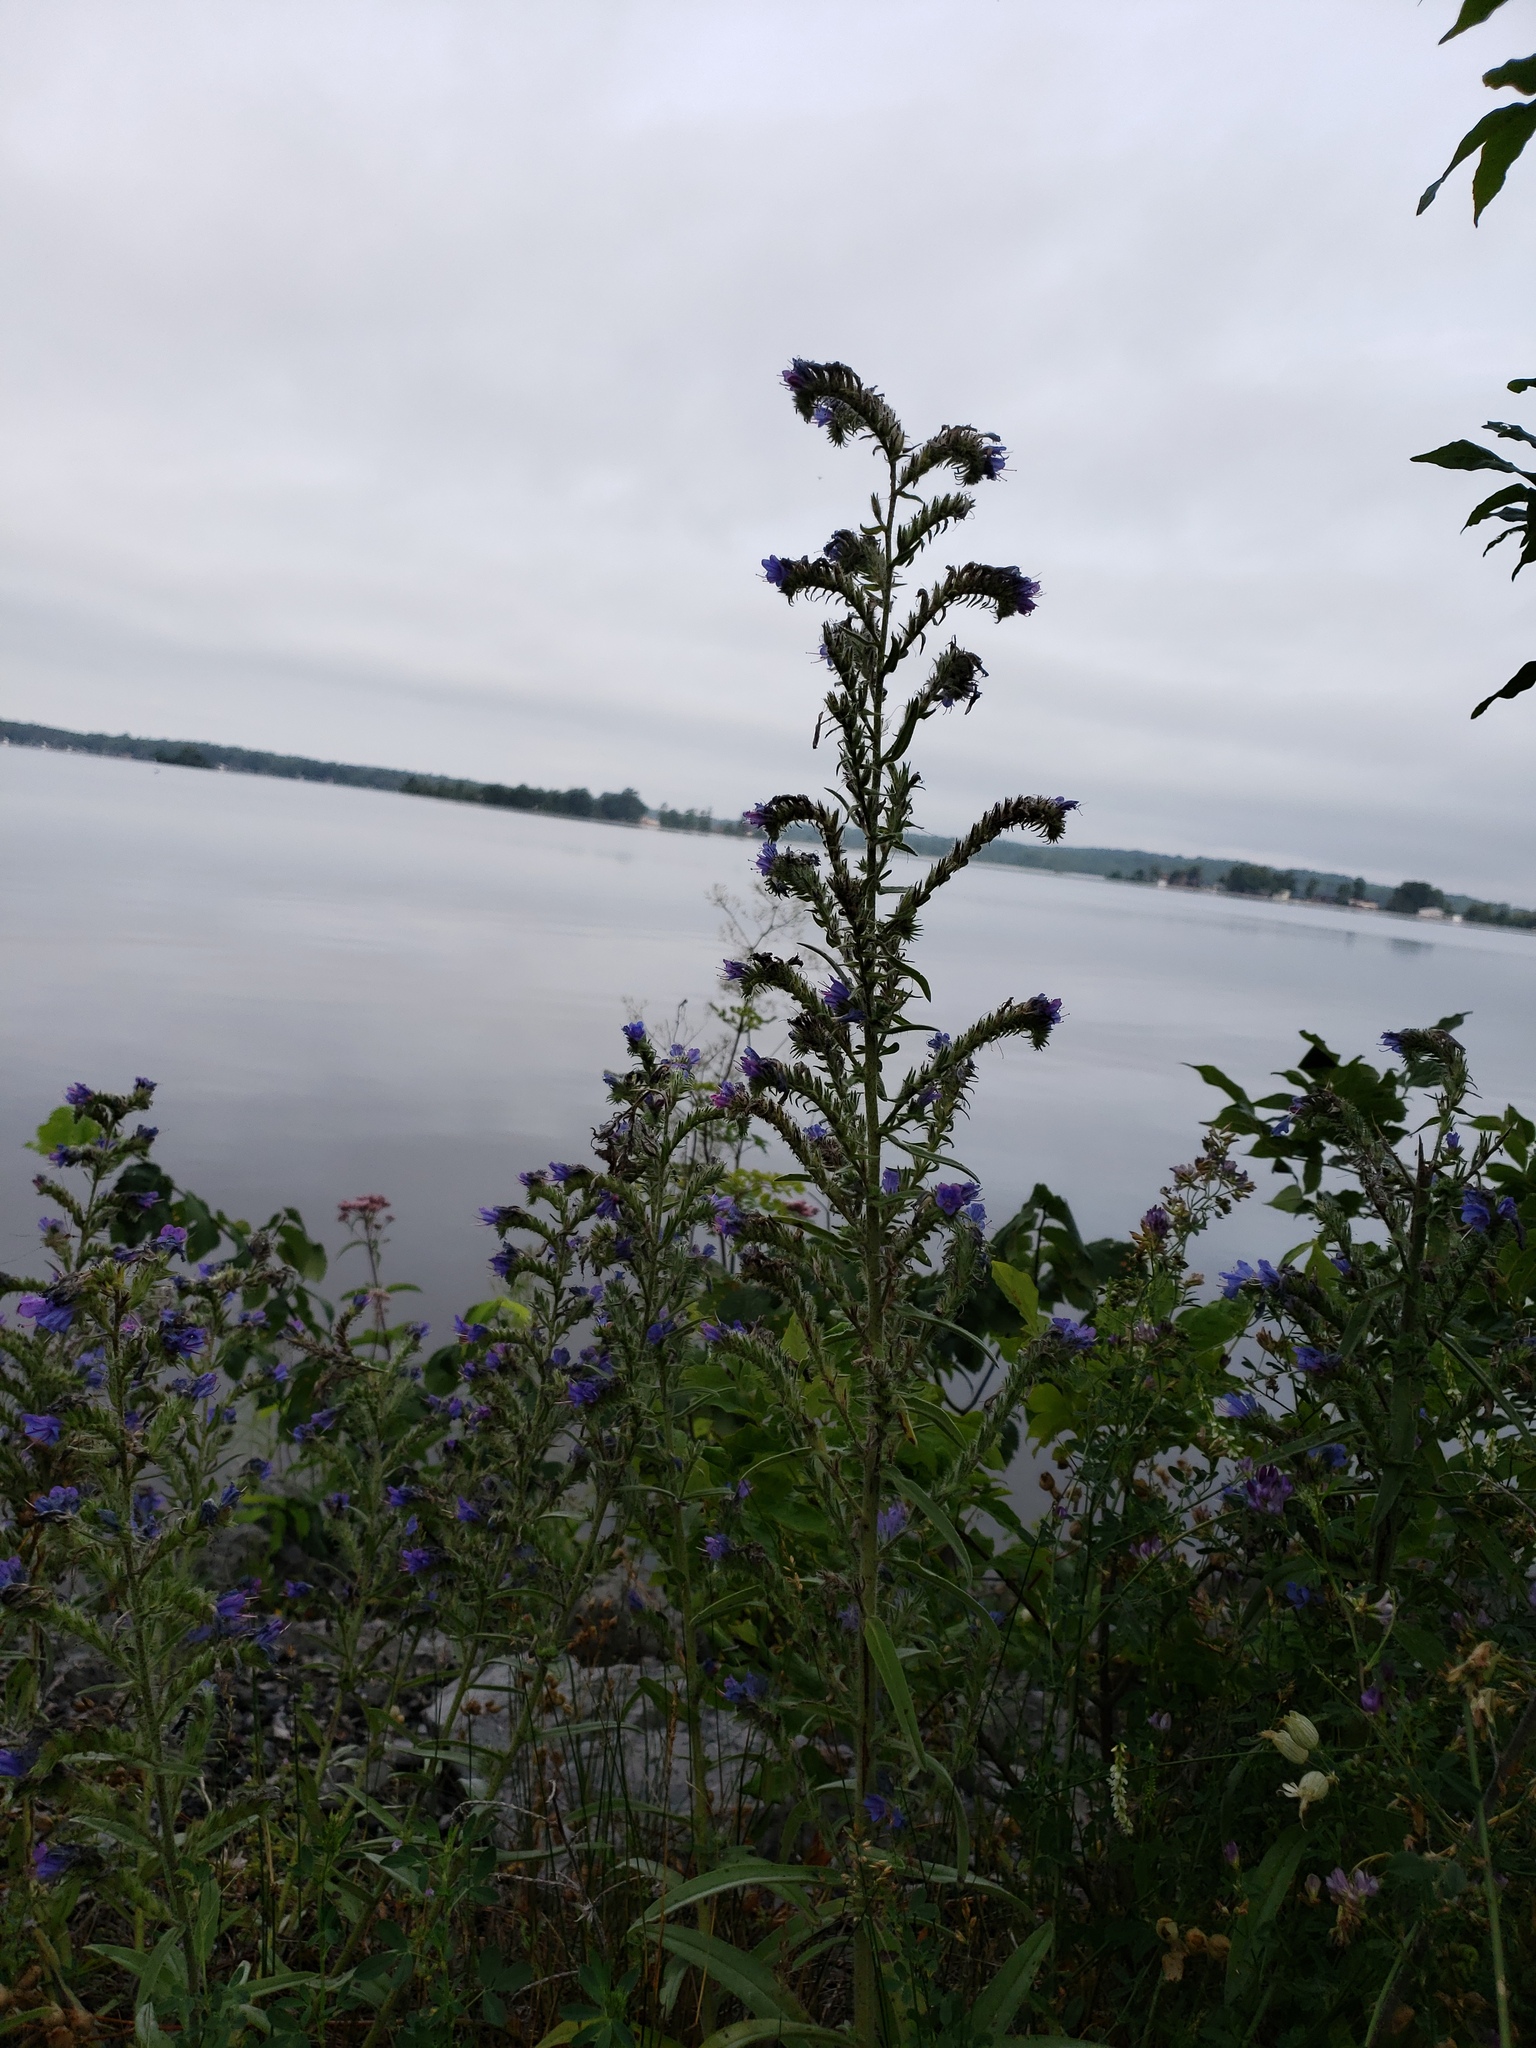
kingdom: Plantae
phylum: Tracheophyta
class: Magnoliopsida
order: Boraginales
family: Boraginaceae
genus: Echium
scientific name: Echium vulgare
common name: Common viper's bugloss
